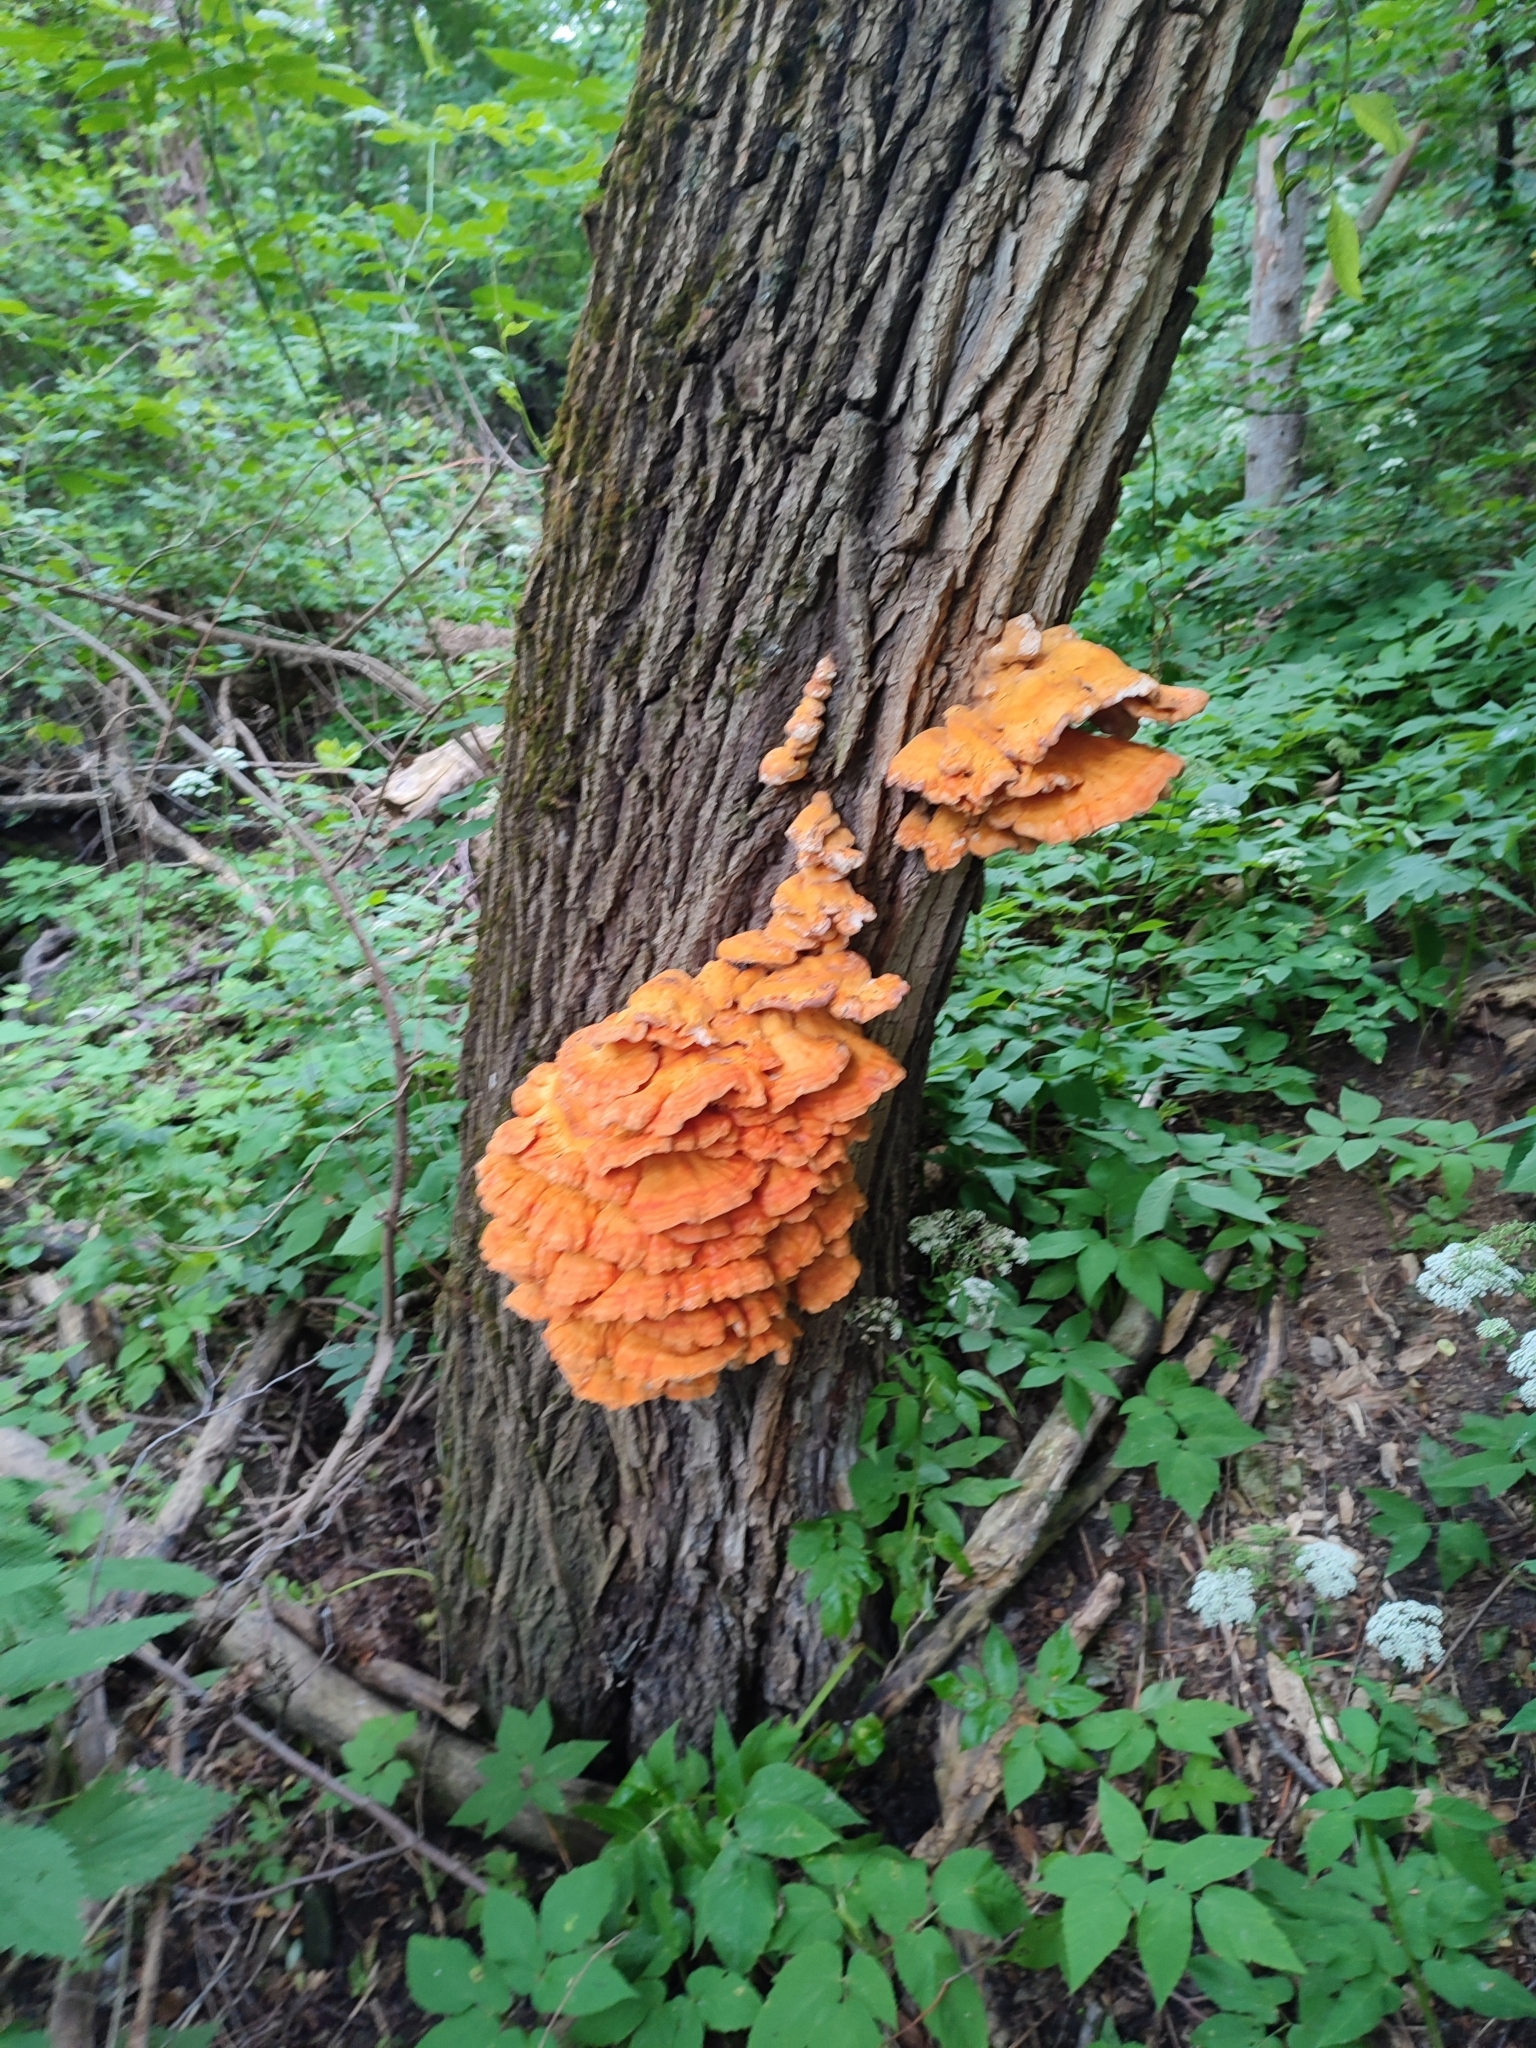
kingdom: Fungi
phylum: Basidiomycota
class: Agaricomycetes
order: Polyporales
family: Laetiporaceae
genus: Laetiporus
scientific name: Laetiporus sulphureus
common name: Chicken of the woods
